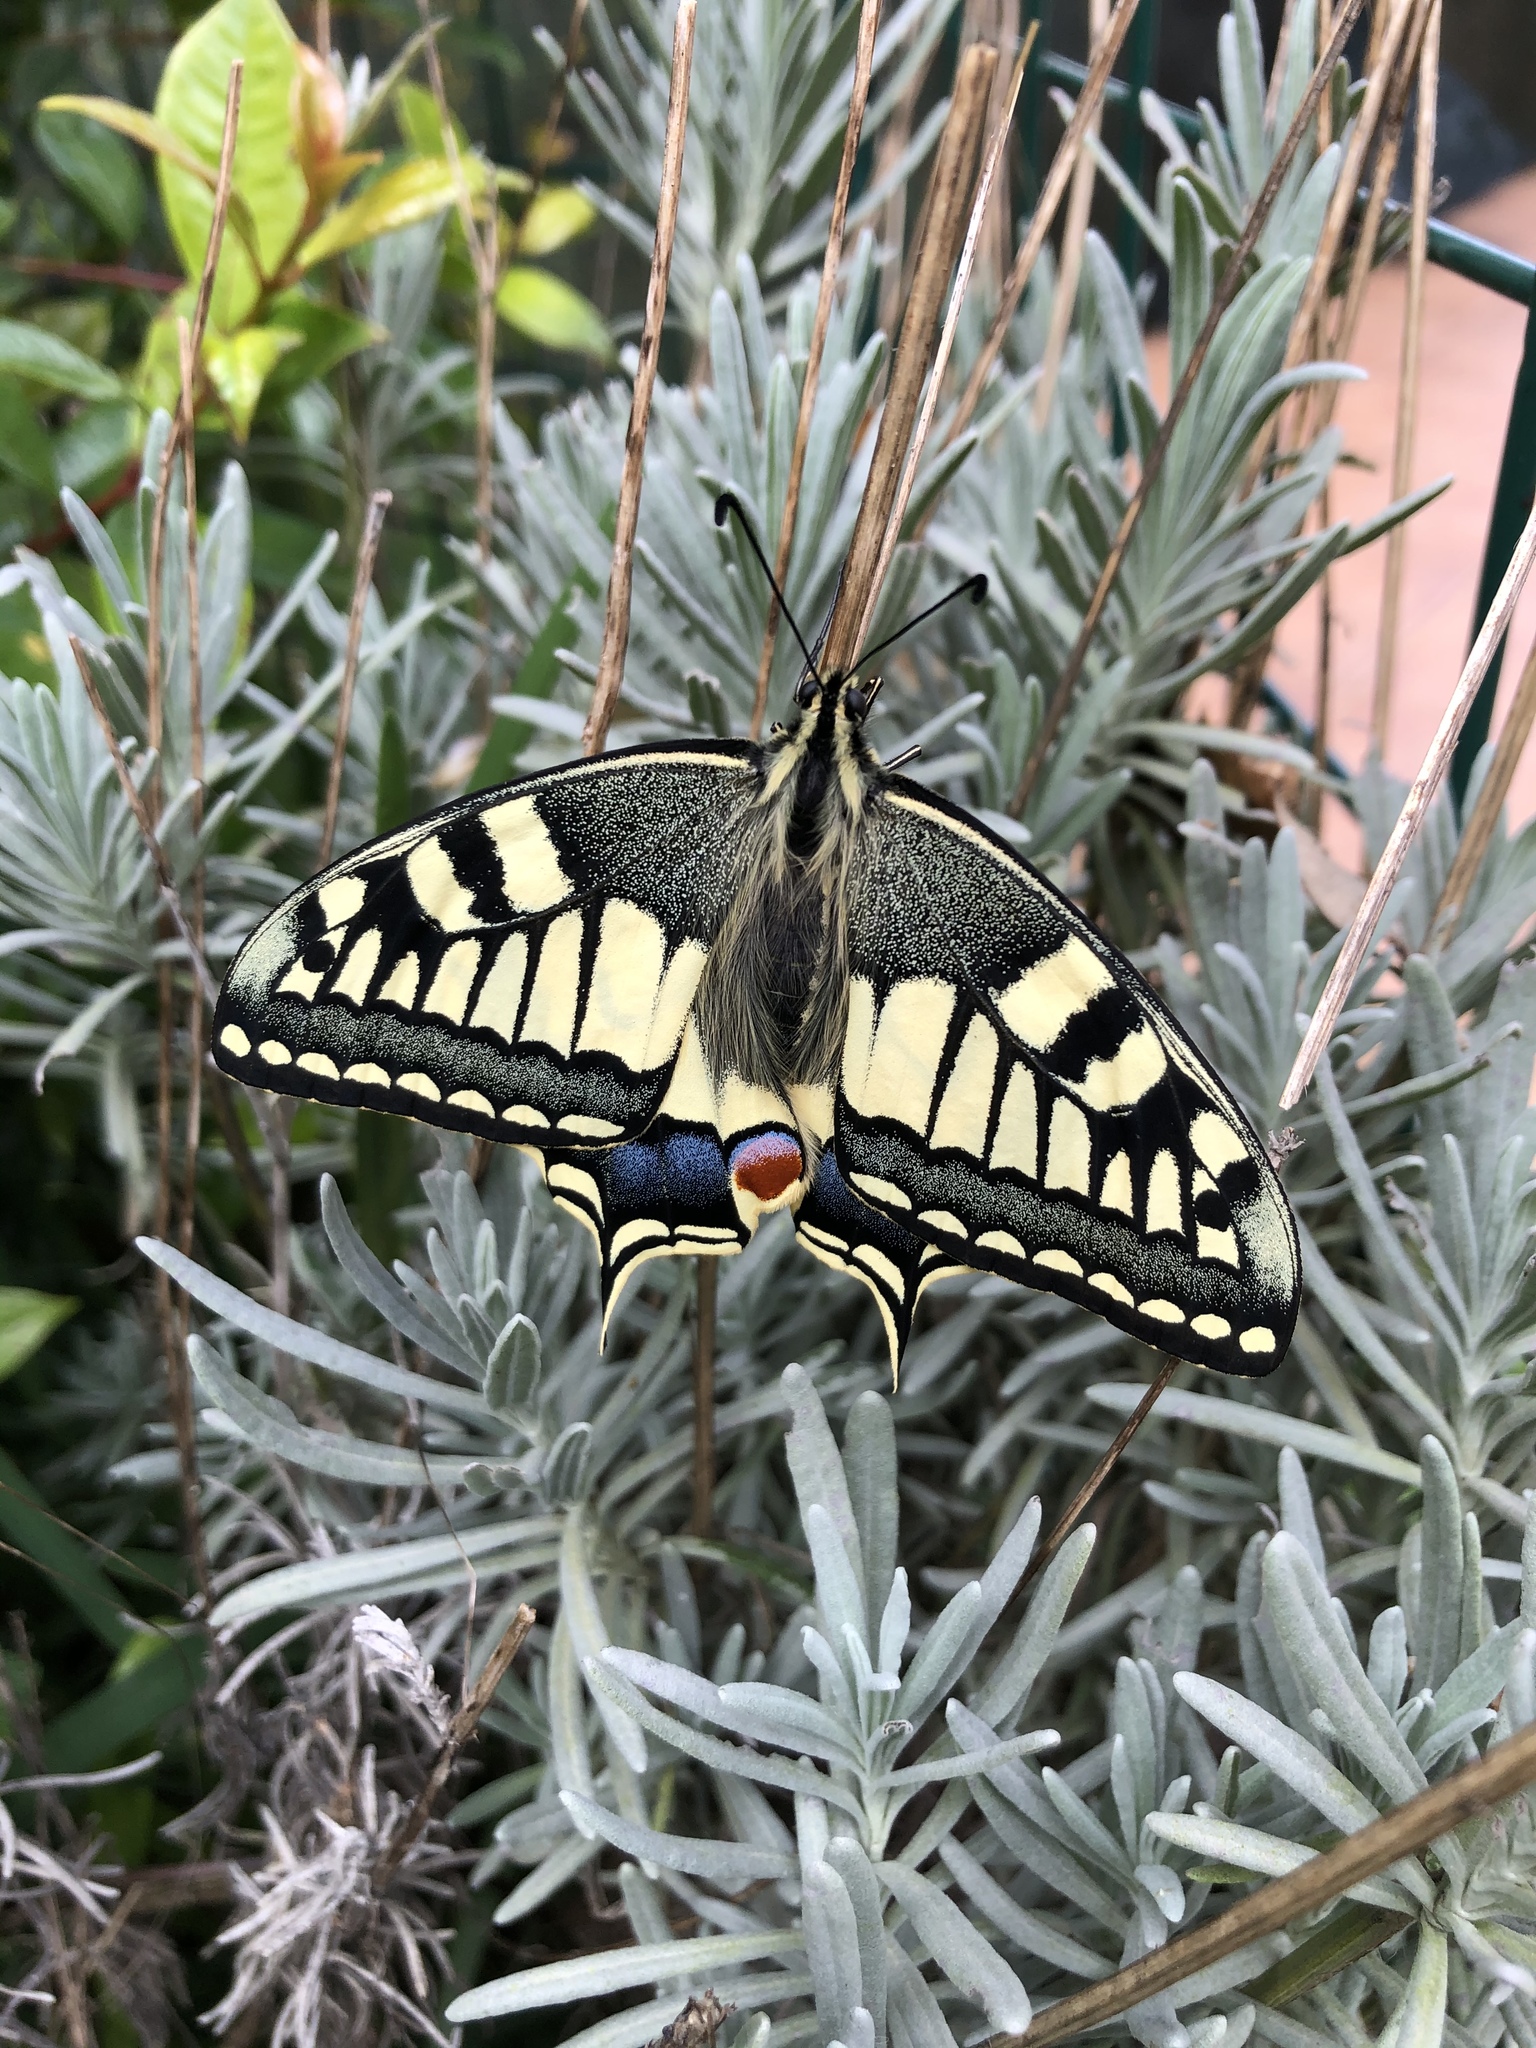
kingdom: Animalia
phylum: Arthropoda
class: Insecta
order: Lepidoptera
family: Papilionidae
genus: Papilio
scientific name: Papilio machaon
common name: Swallowtail
